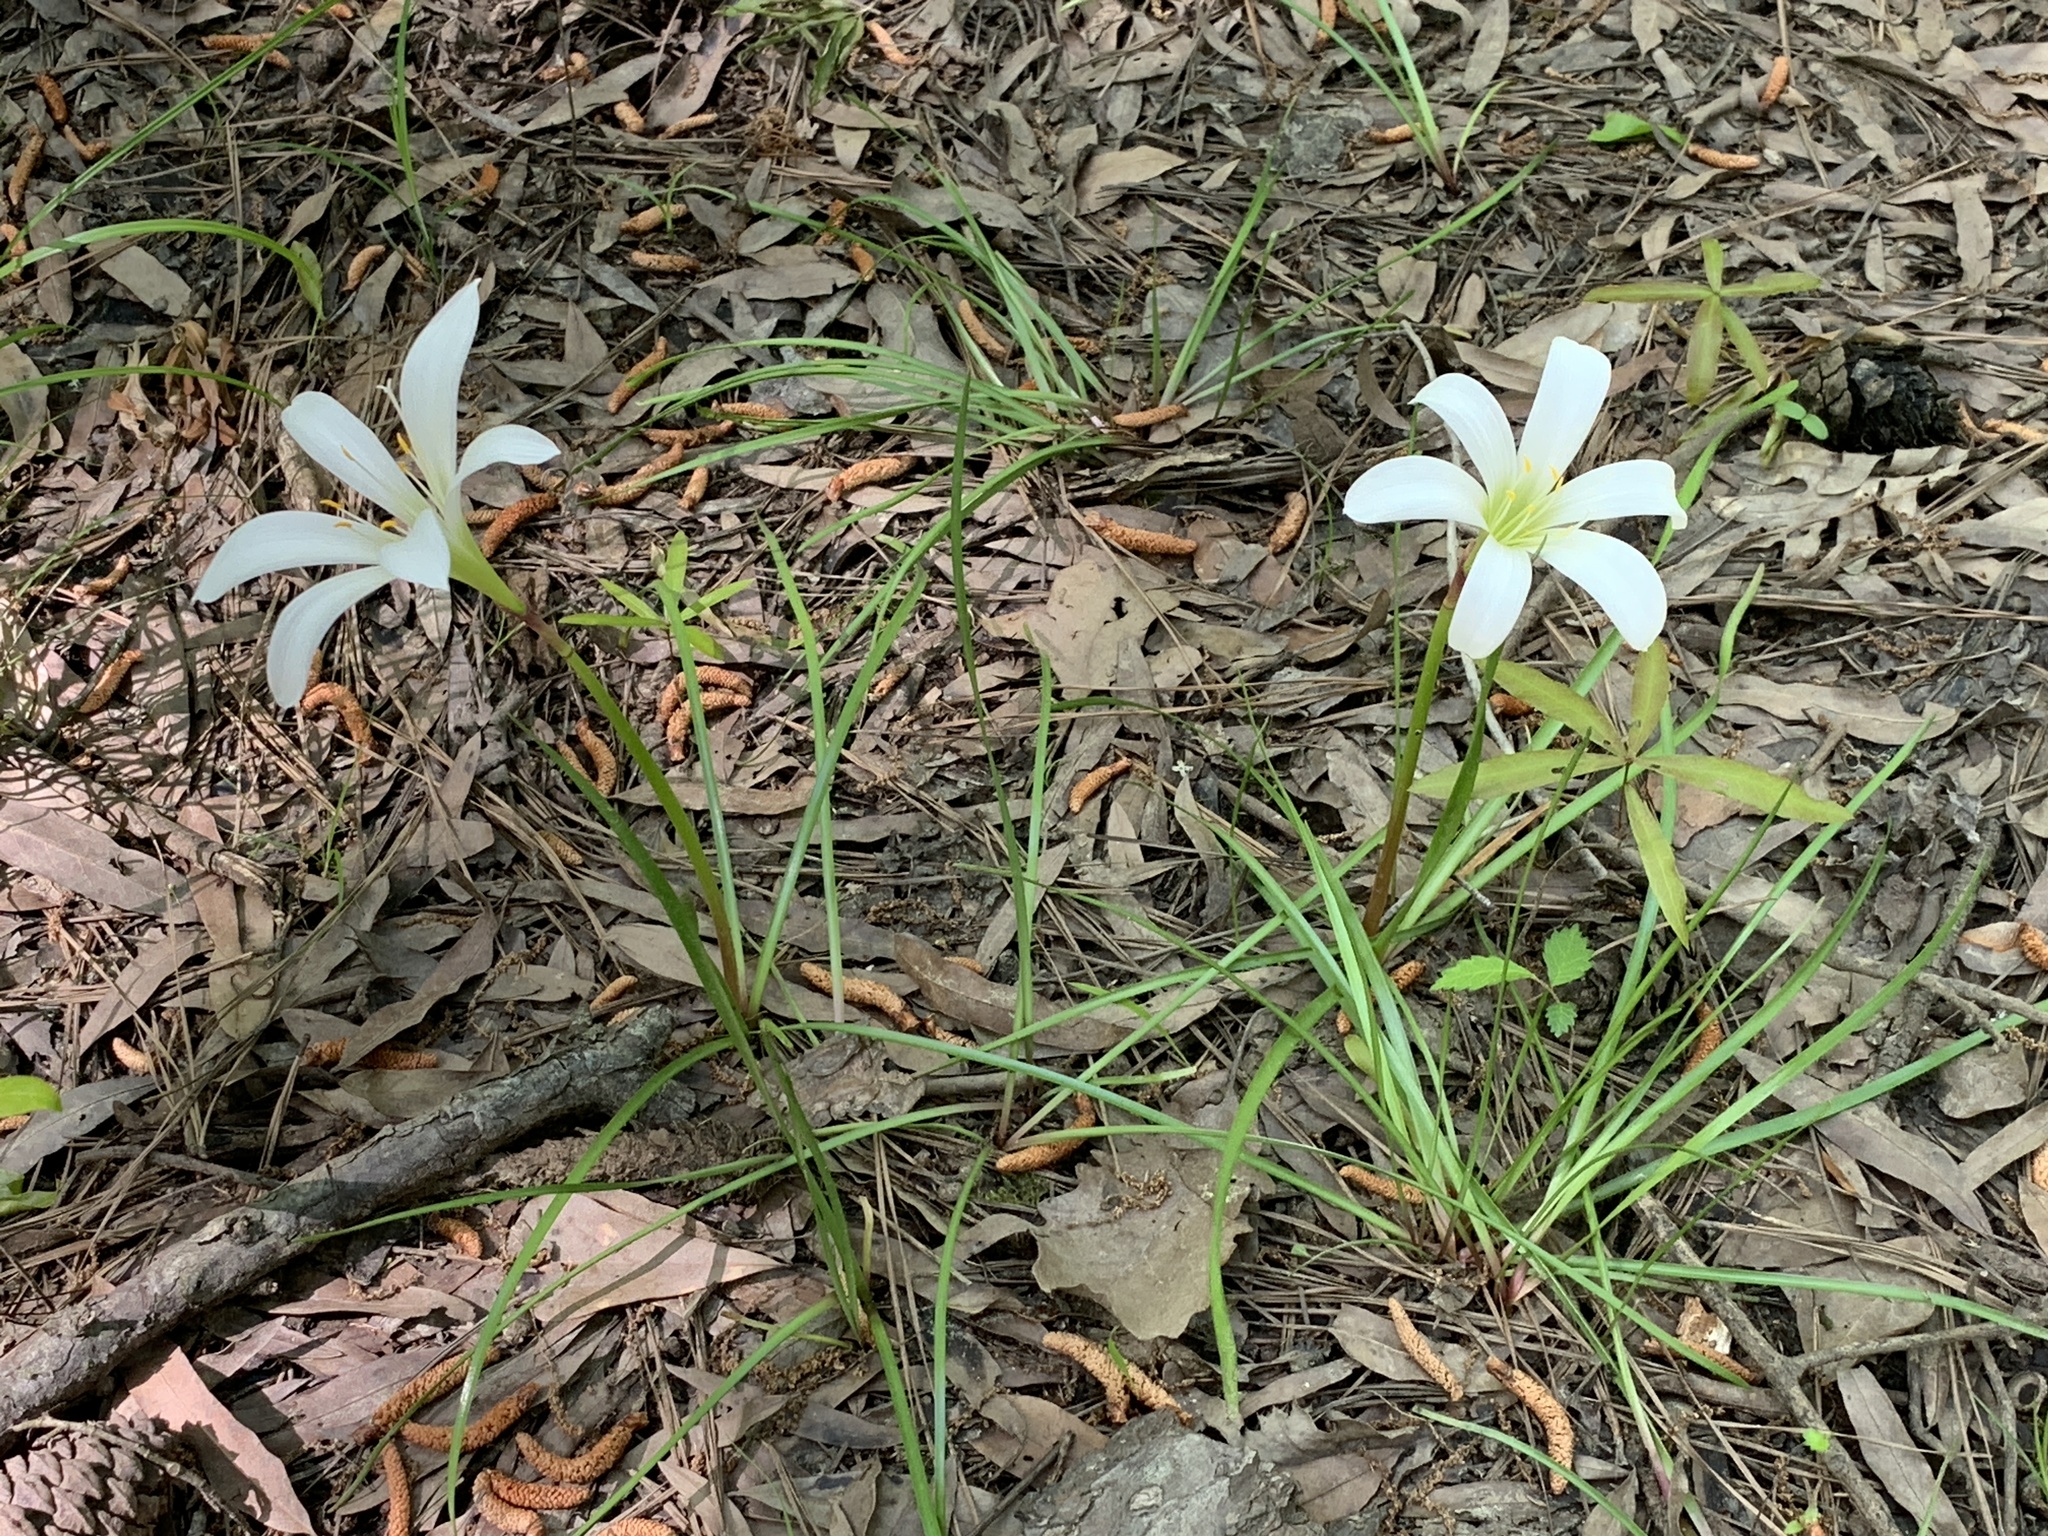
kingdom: Plantae
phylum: Tracheophyta
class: Liliopsida
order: Asparagales
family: Amaryllidaceae
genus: Zephyranthes
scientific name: Zephyranthes atamasco
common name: Atamasco lily
